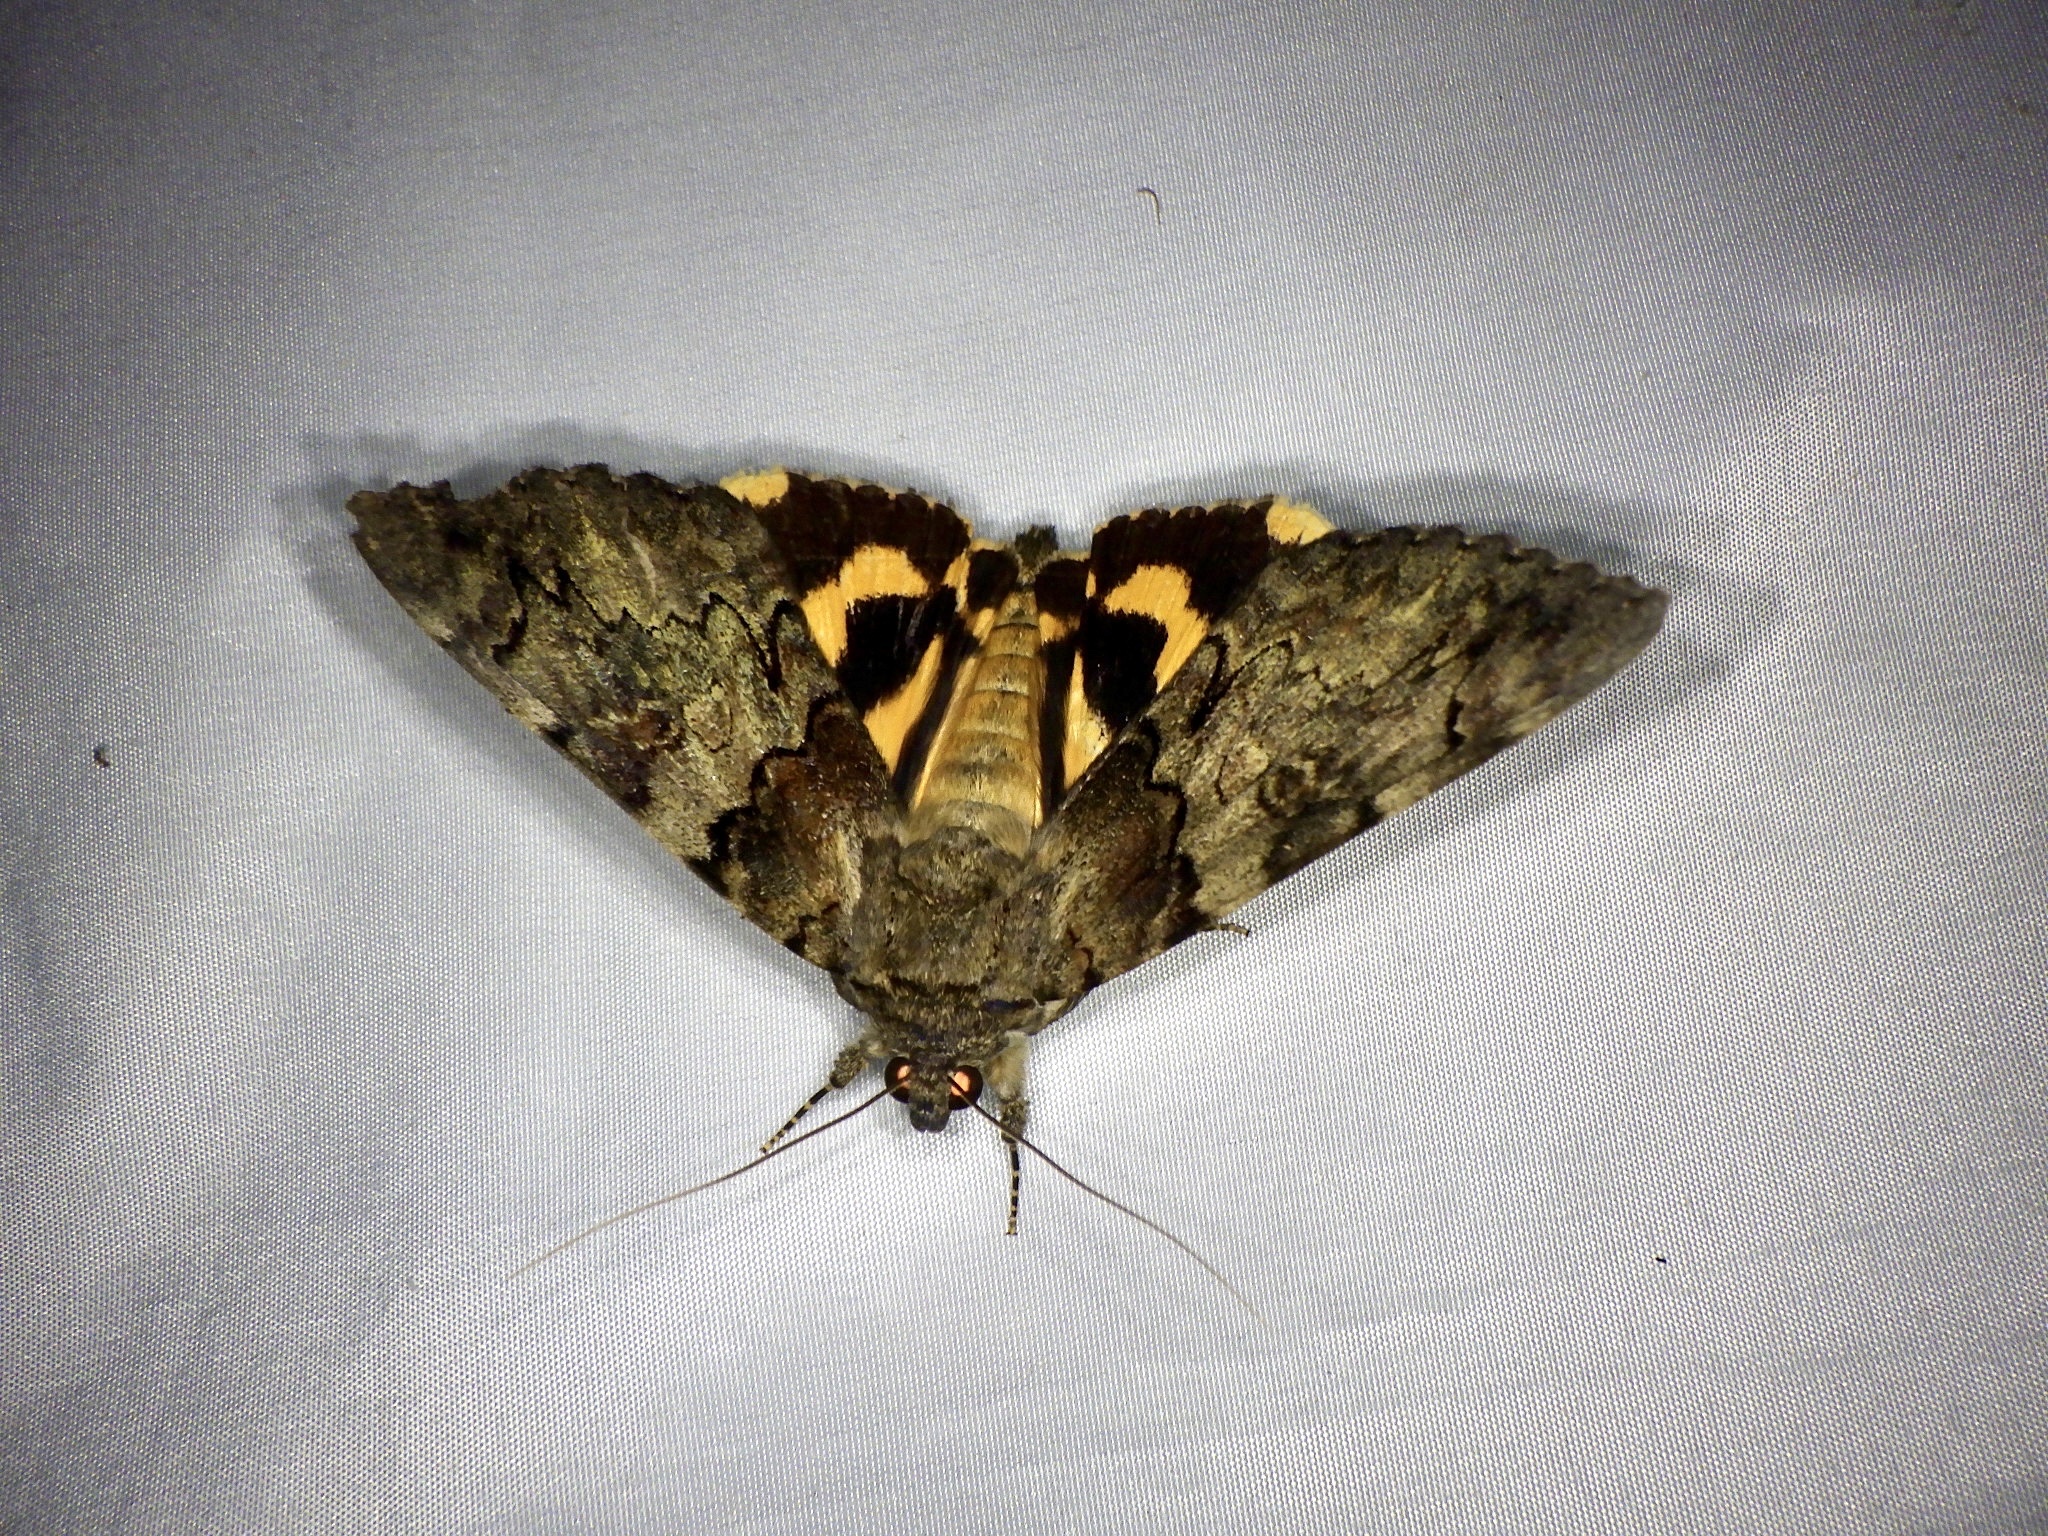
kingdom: Animalia
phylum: Arthropoda
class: Insecta
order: Lepidoptera
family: Erebidae
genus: Catocala
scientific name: Catocala patala
